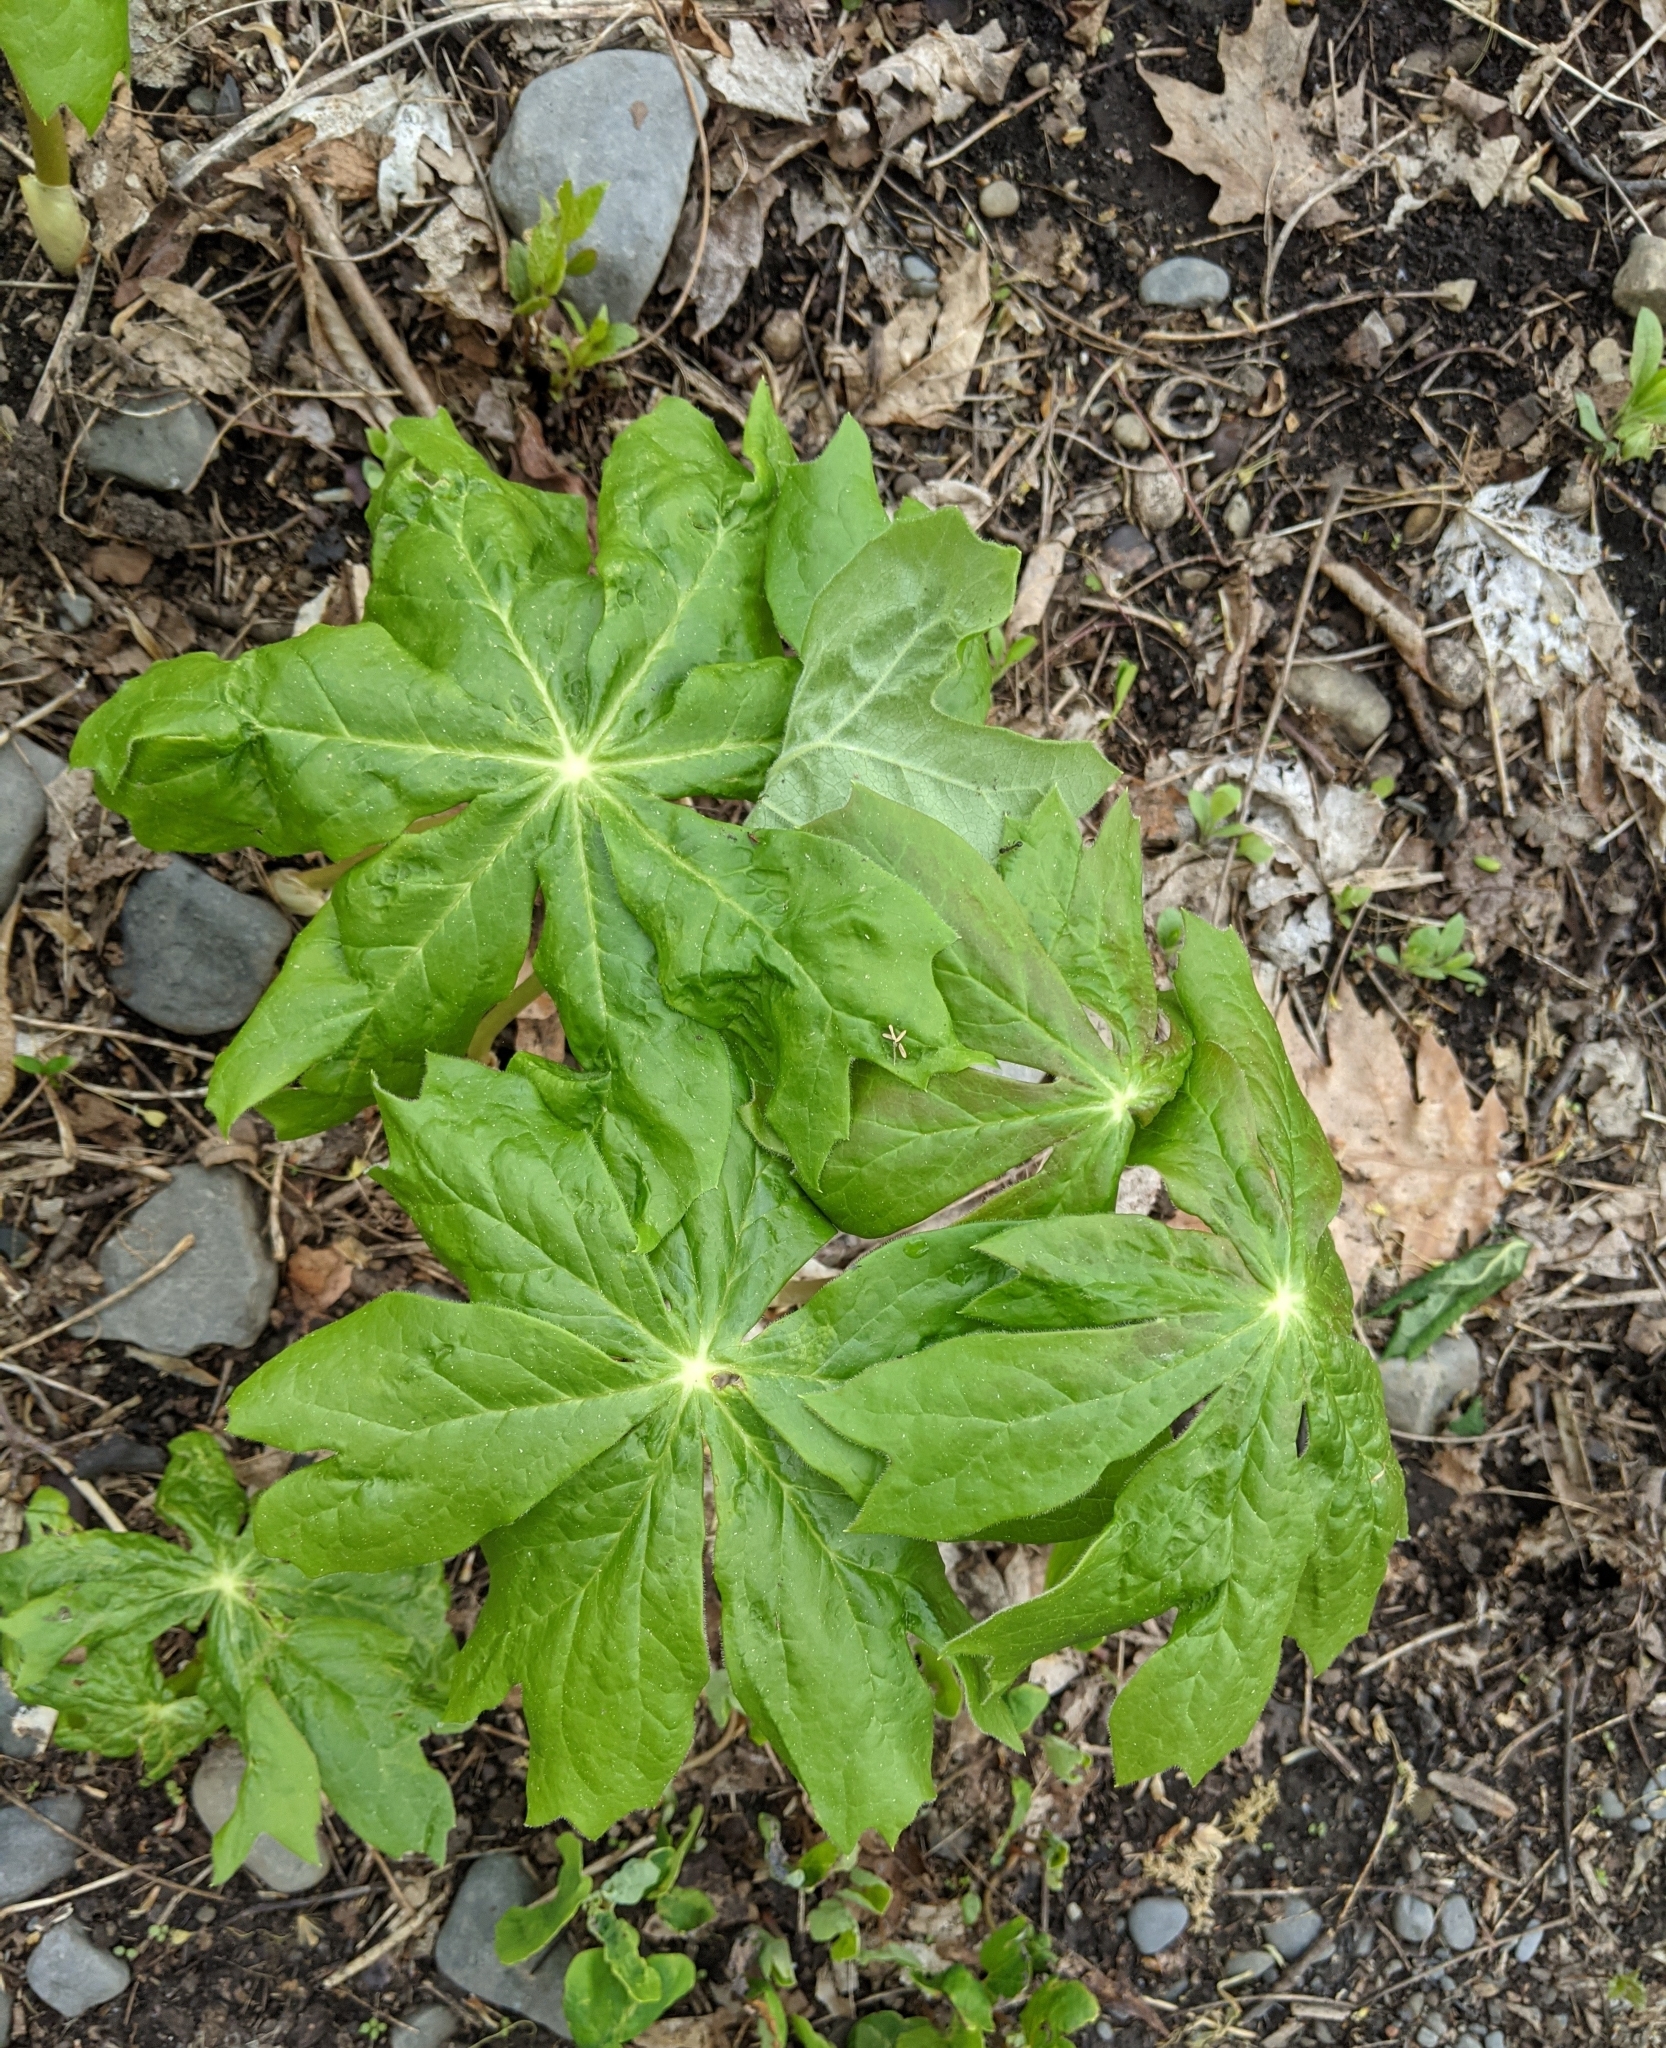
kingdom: Plantae
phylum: Tracheophyta
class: Magnoliopsida
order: Ranunculales
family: Berberidaceae
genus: Podophyllum
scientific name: Podophyllum peltatum
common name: Wild mandrake
